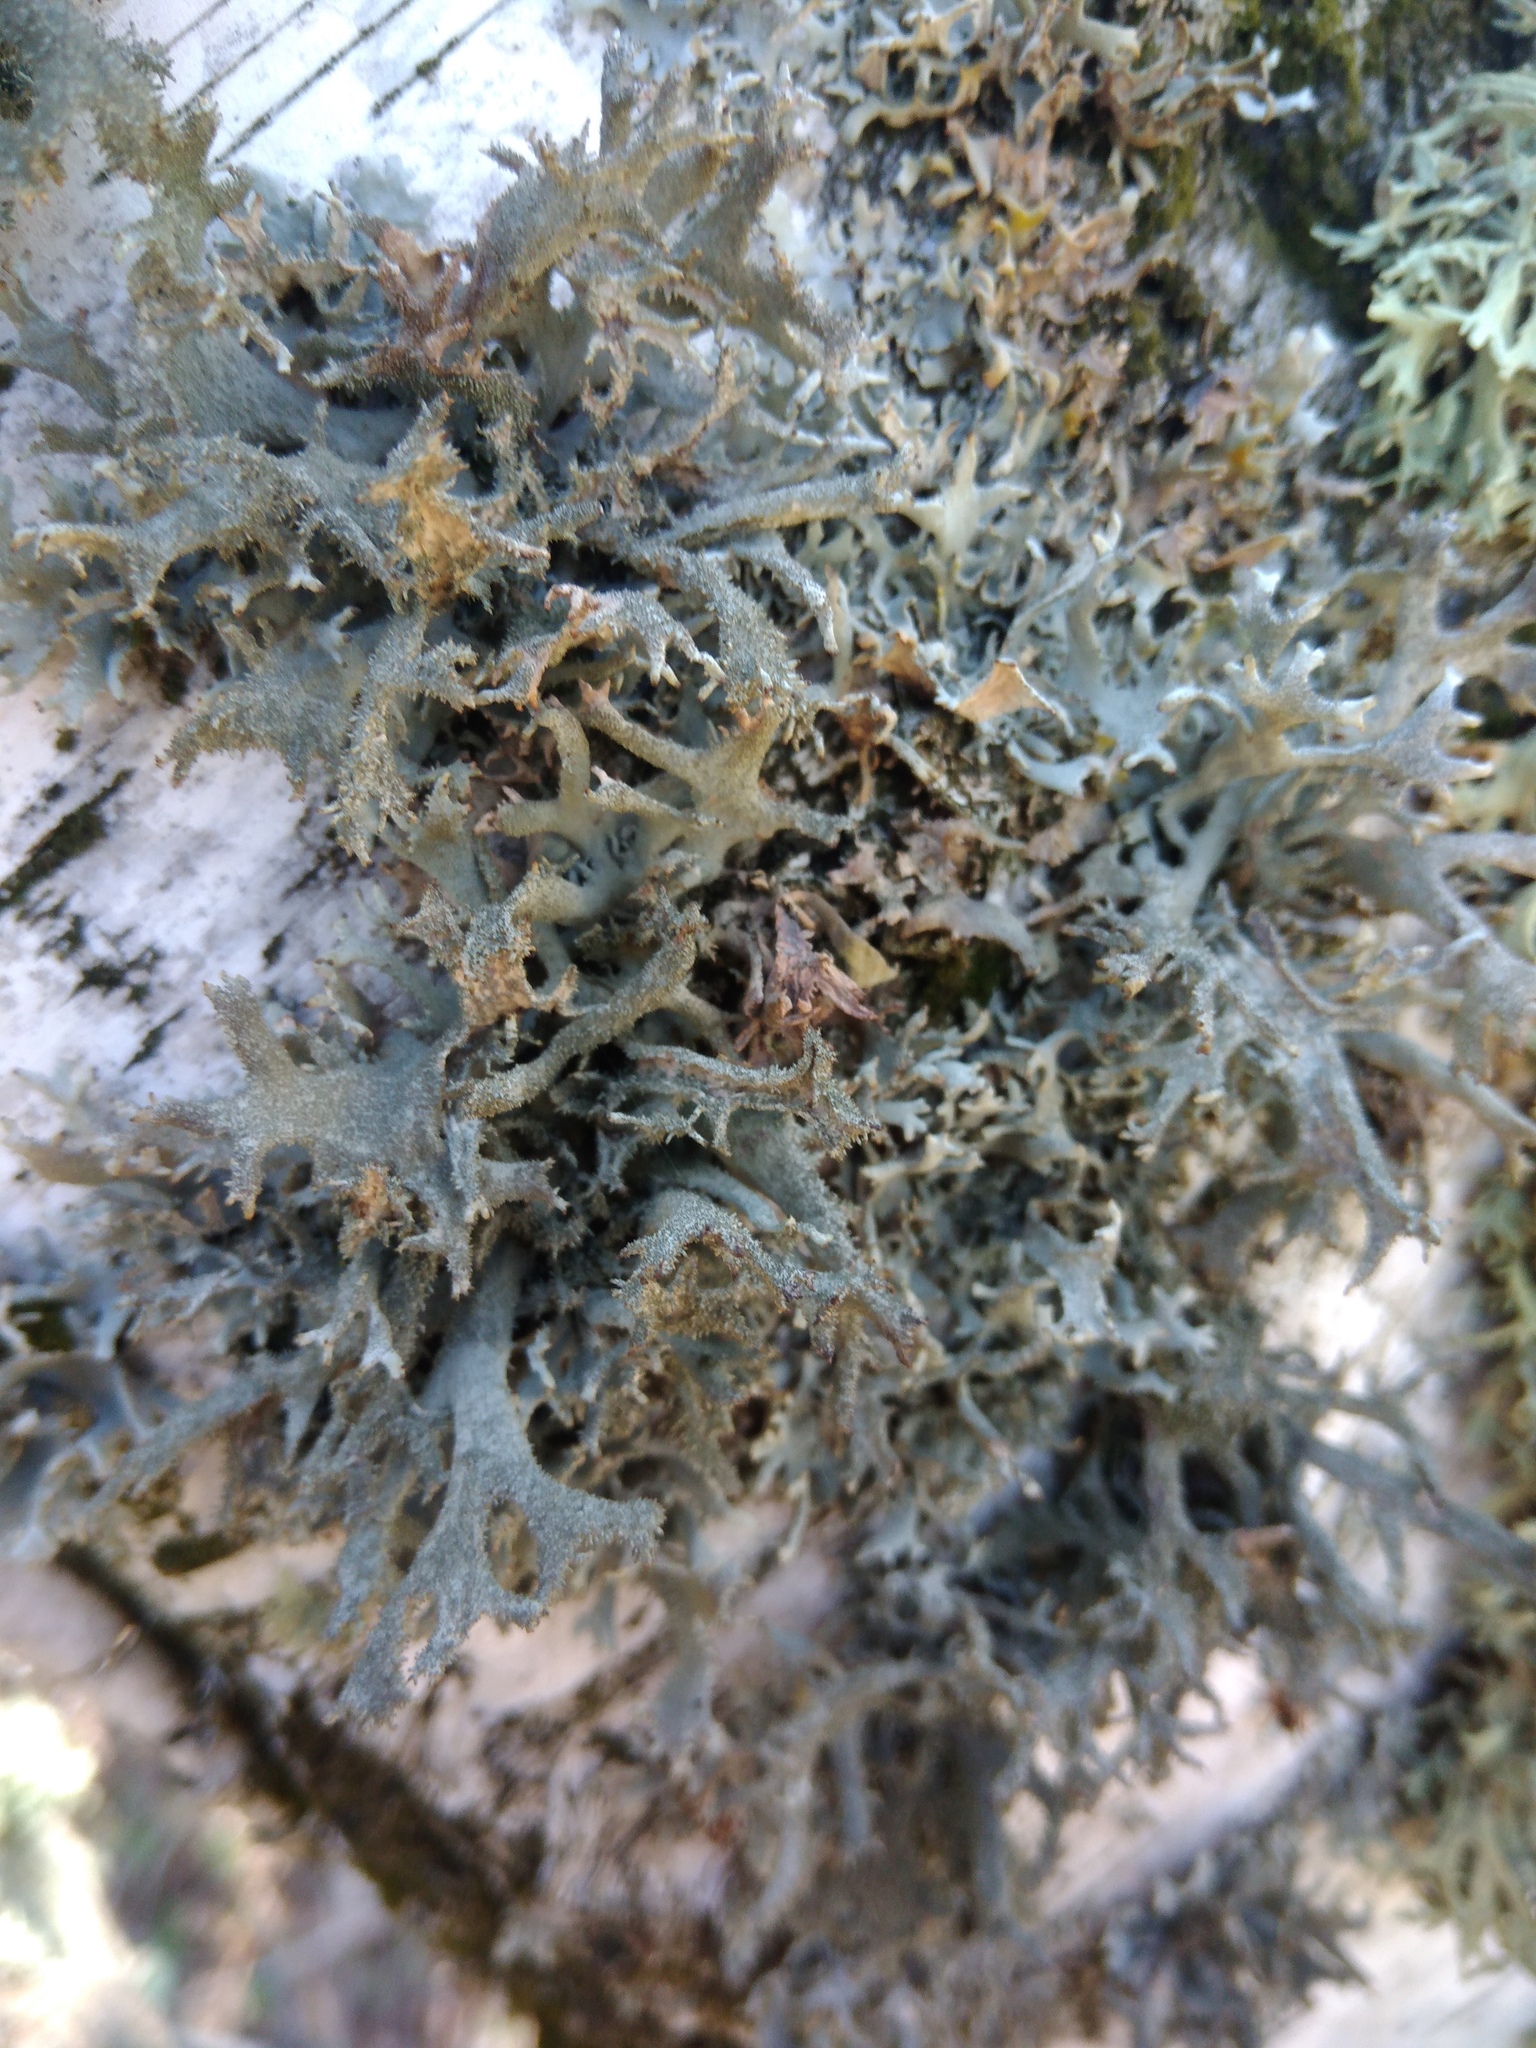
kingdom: Fungi
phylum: Ascomycota
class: Lecanoromycetes
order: Lecanorales
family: Parmeliaceae
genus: Pseudevernia
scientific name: Pseudevernia furfuracea
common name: Tree moss
